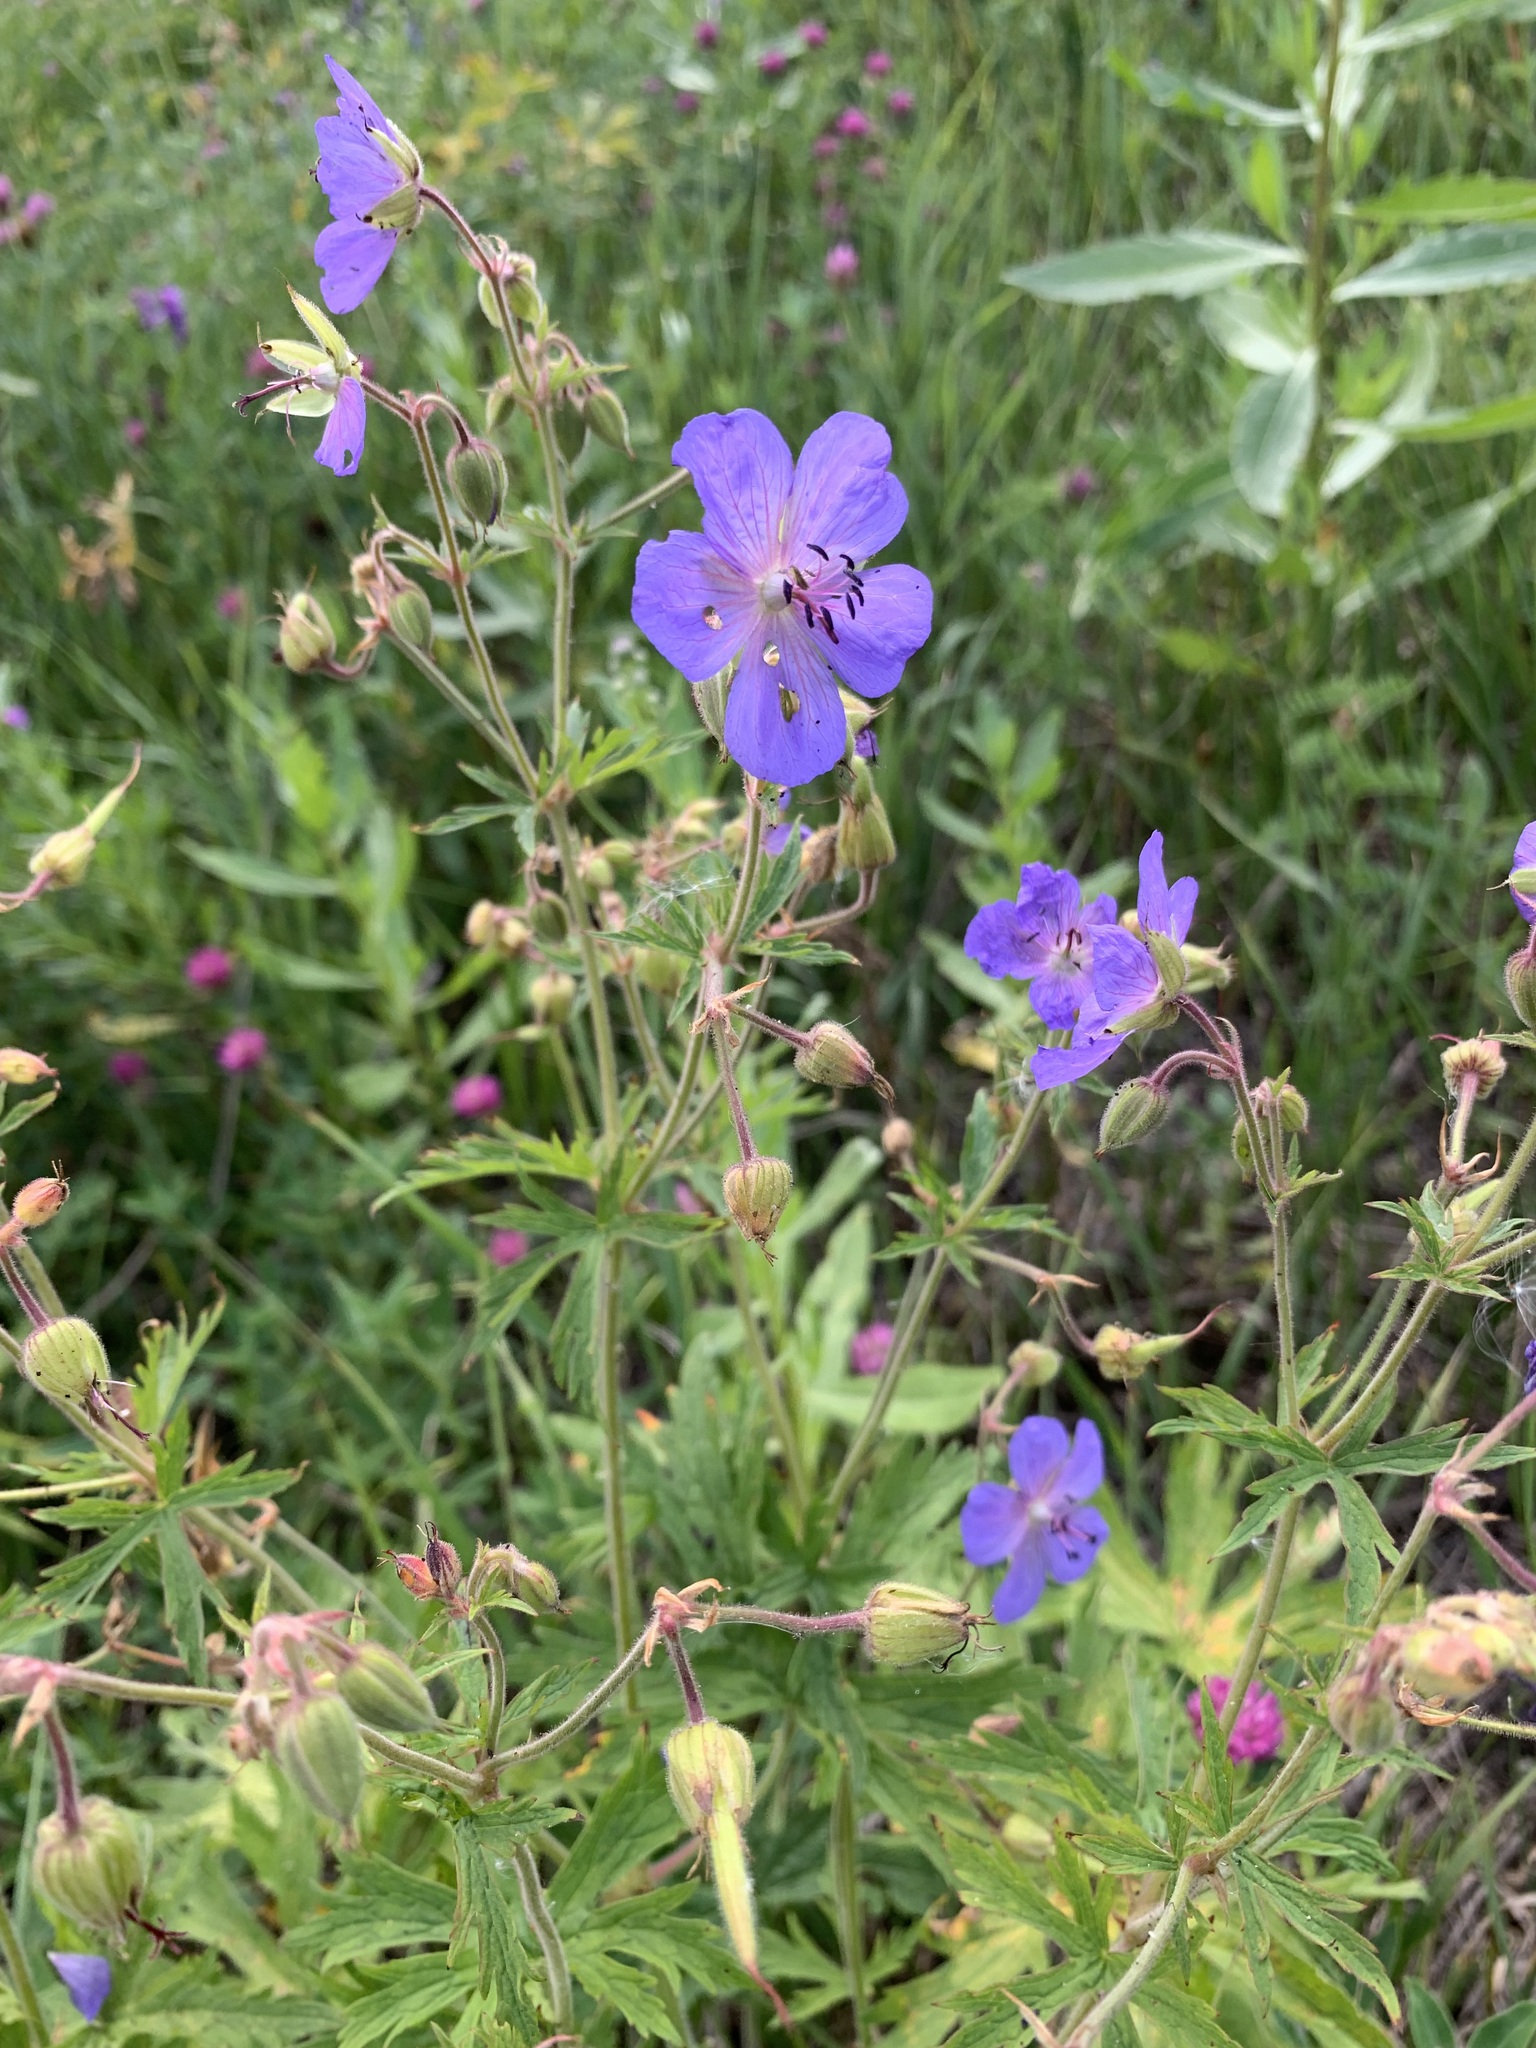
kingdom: Plantae
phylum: Tracheophyta
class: Magnoliopsida
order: Geraniales
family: Geraniaceae
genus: Geranium
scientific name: Geranium pratense
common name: Meadow crane's-bill
